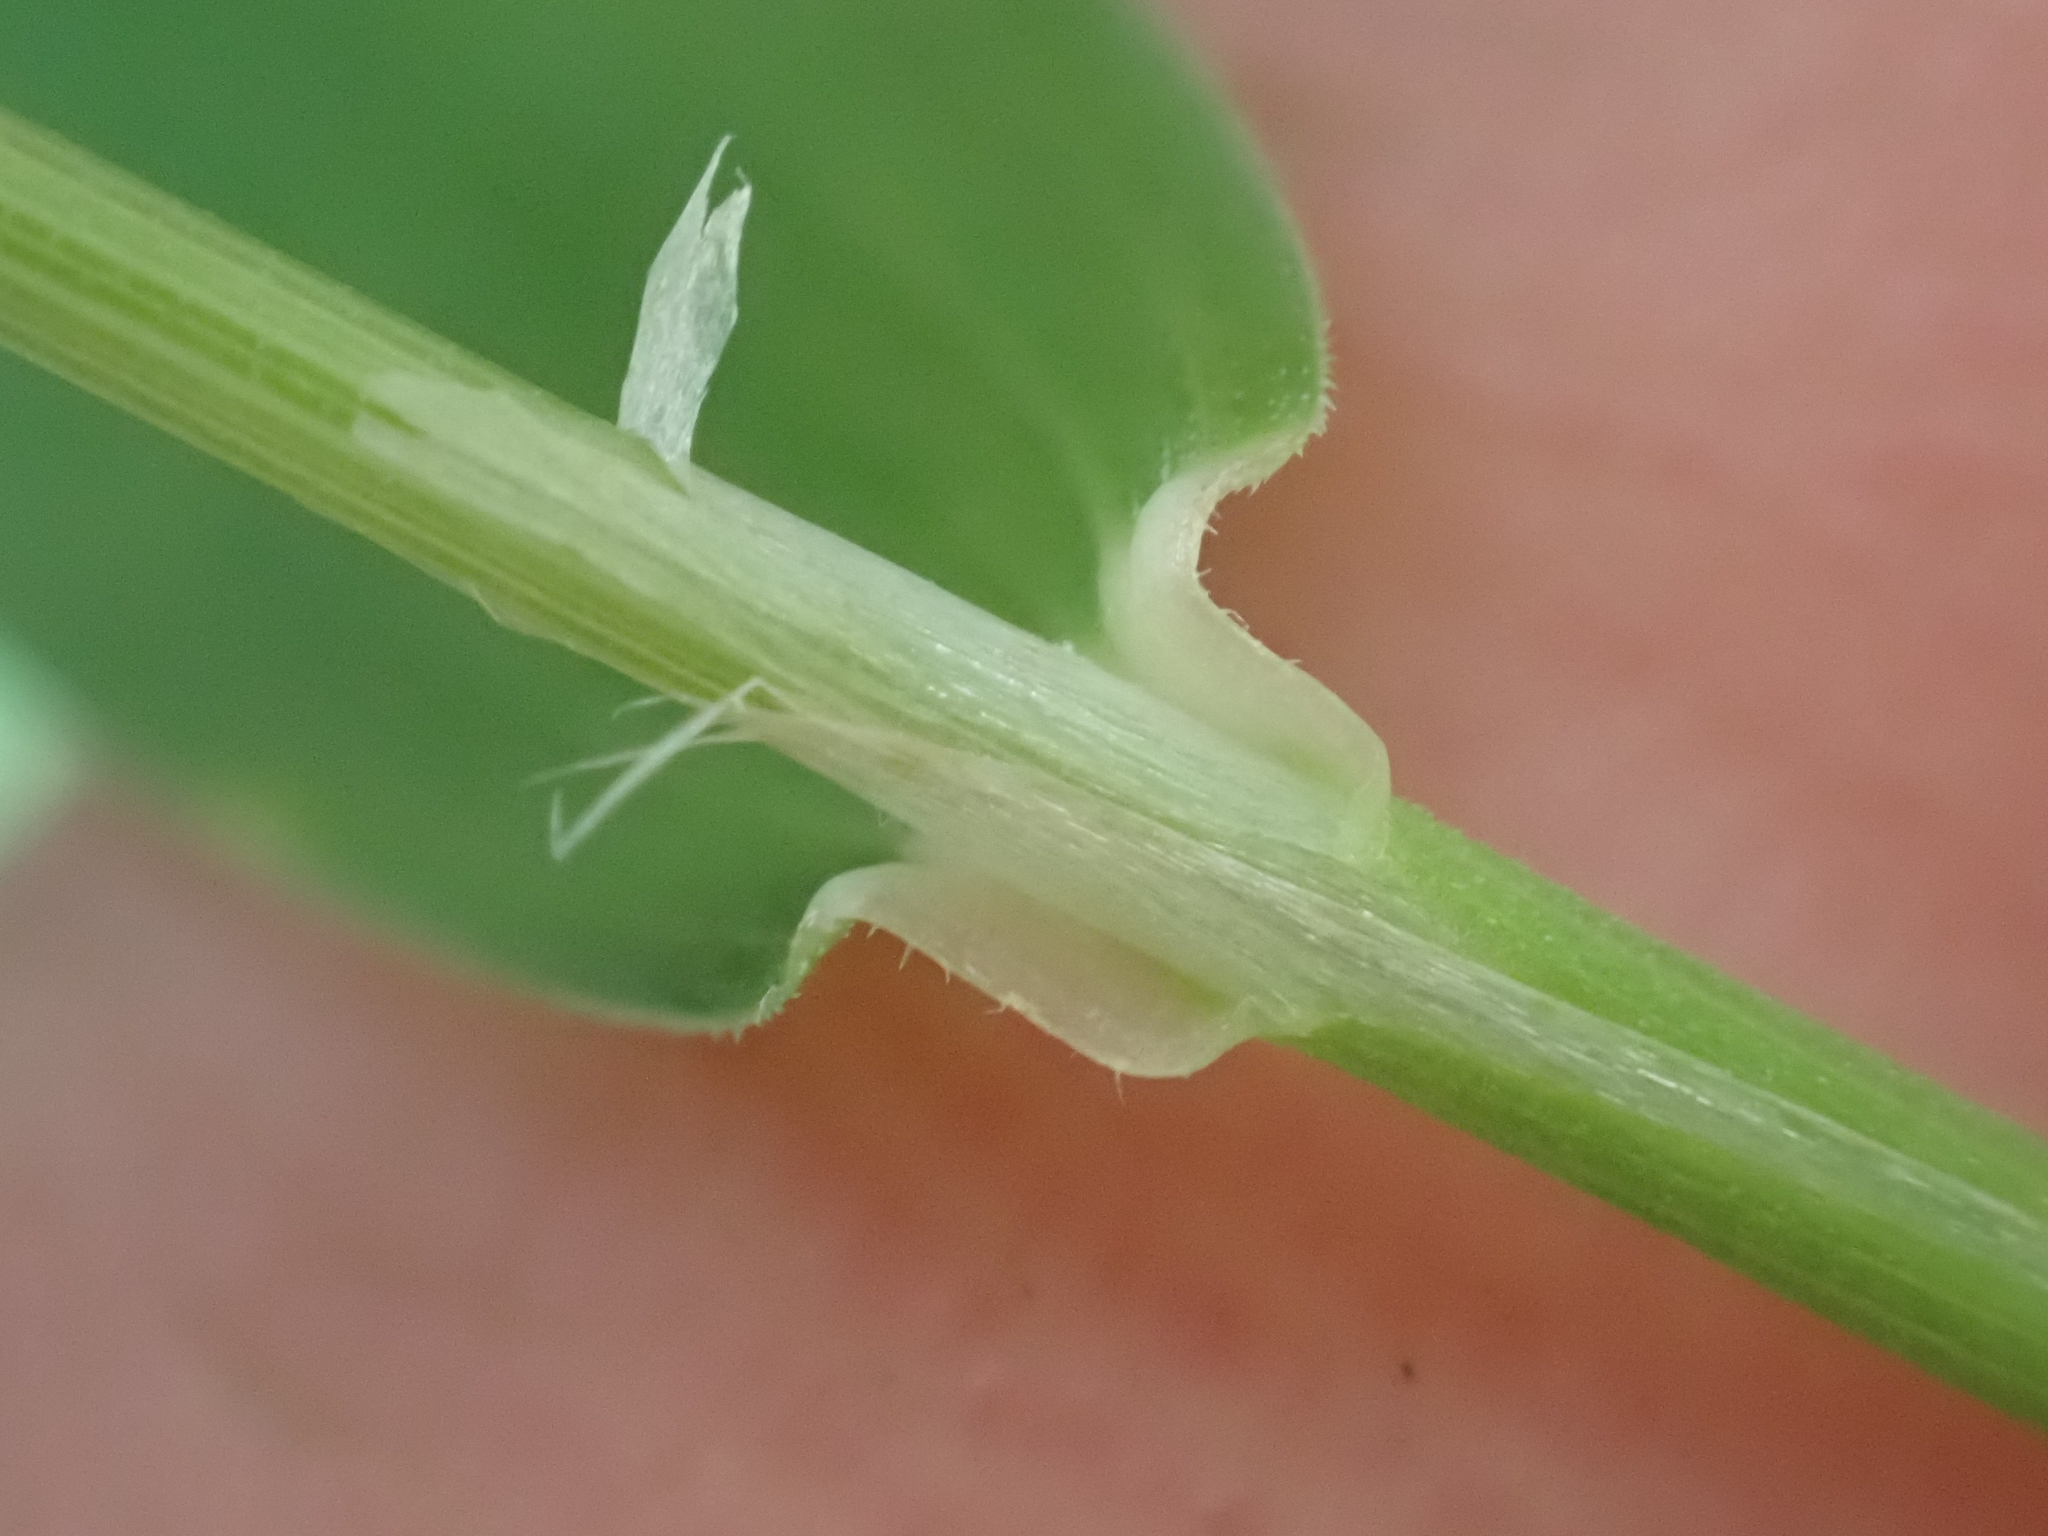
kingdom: Plantae
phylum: Tracheophyta
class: Liliopsida
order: Poales
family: Poaceae
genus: Cinna
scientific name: Cinna latifolia
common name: Drooping woodreed
